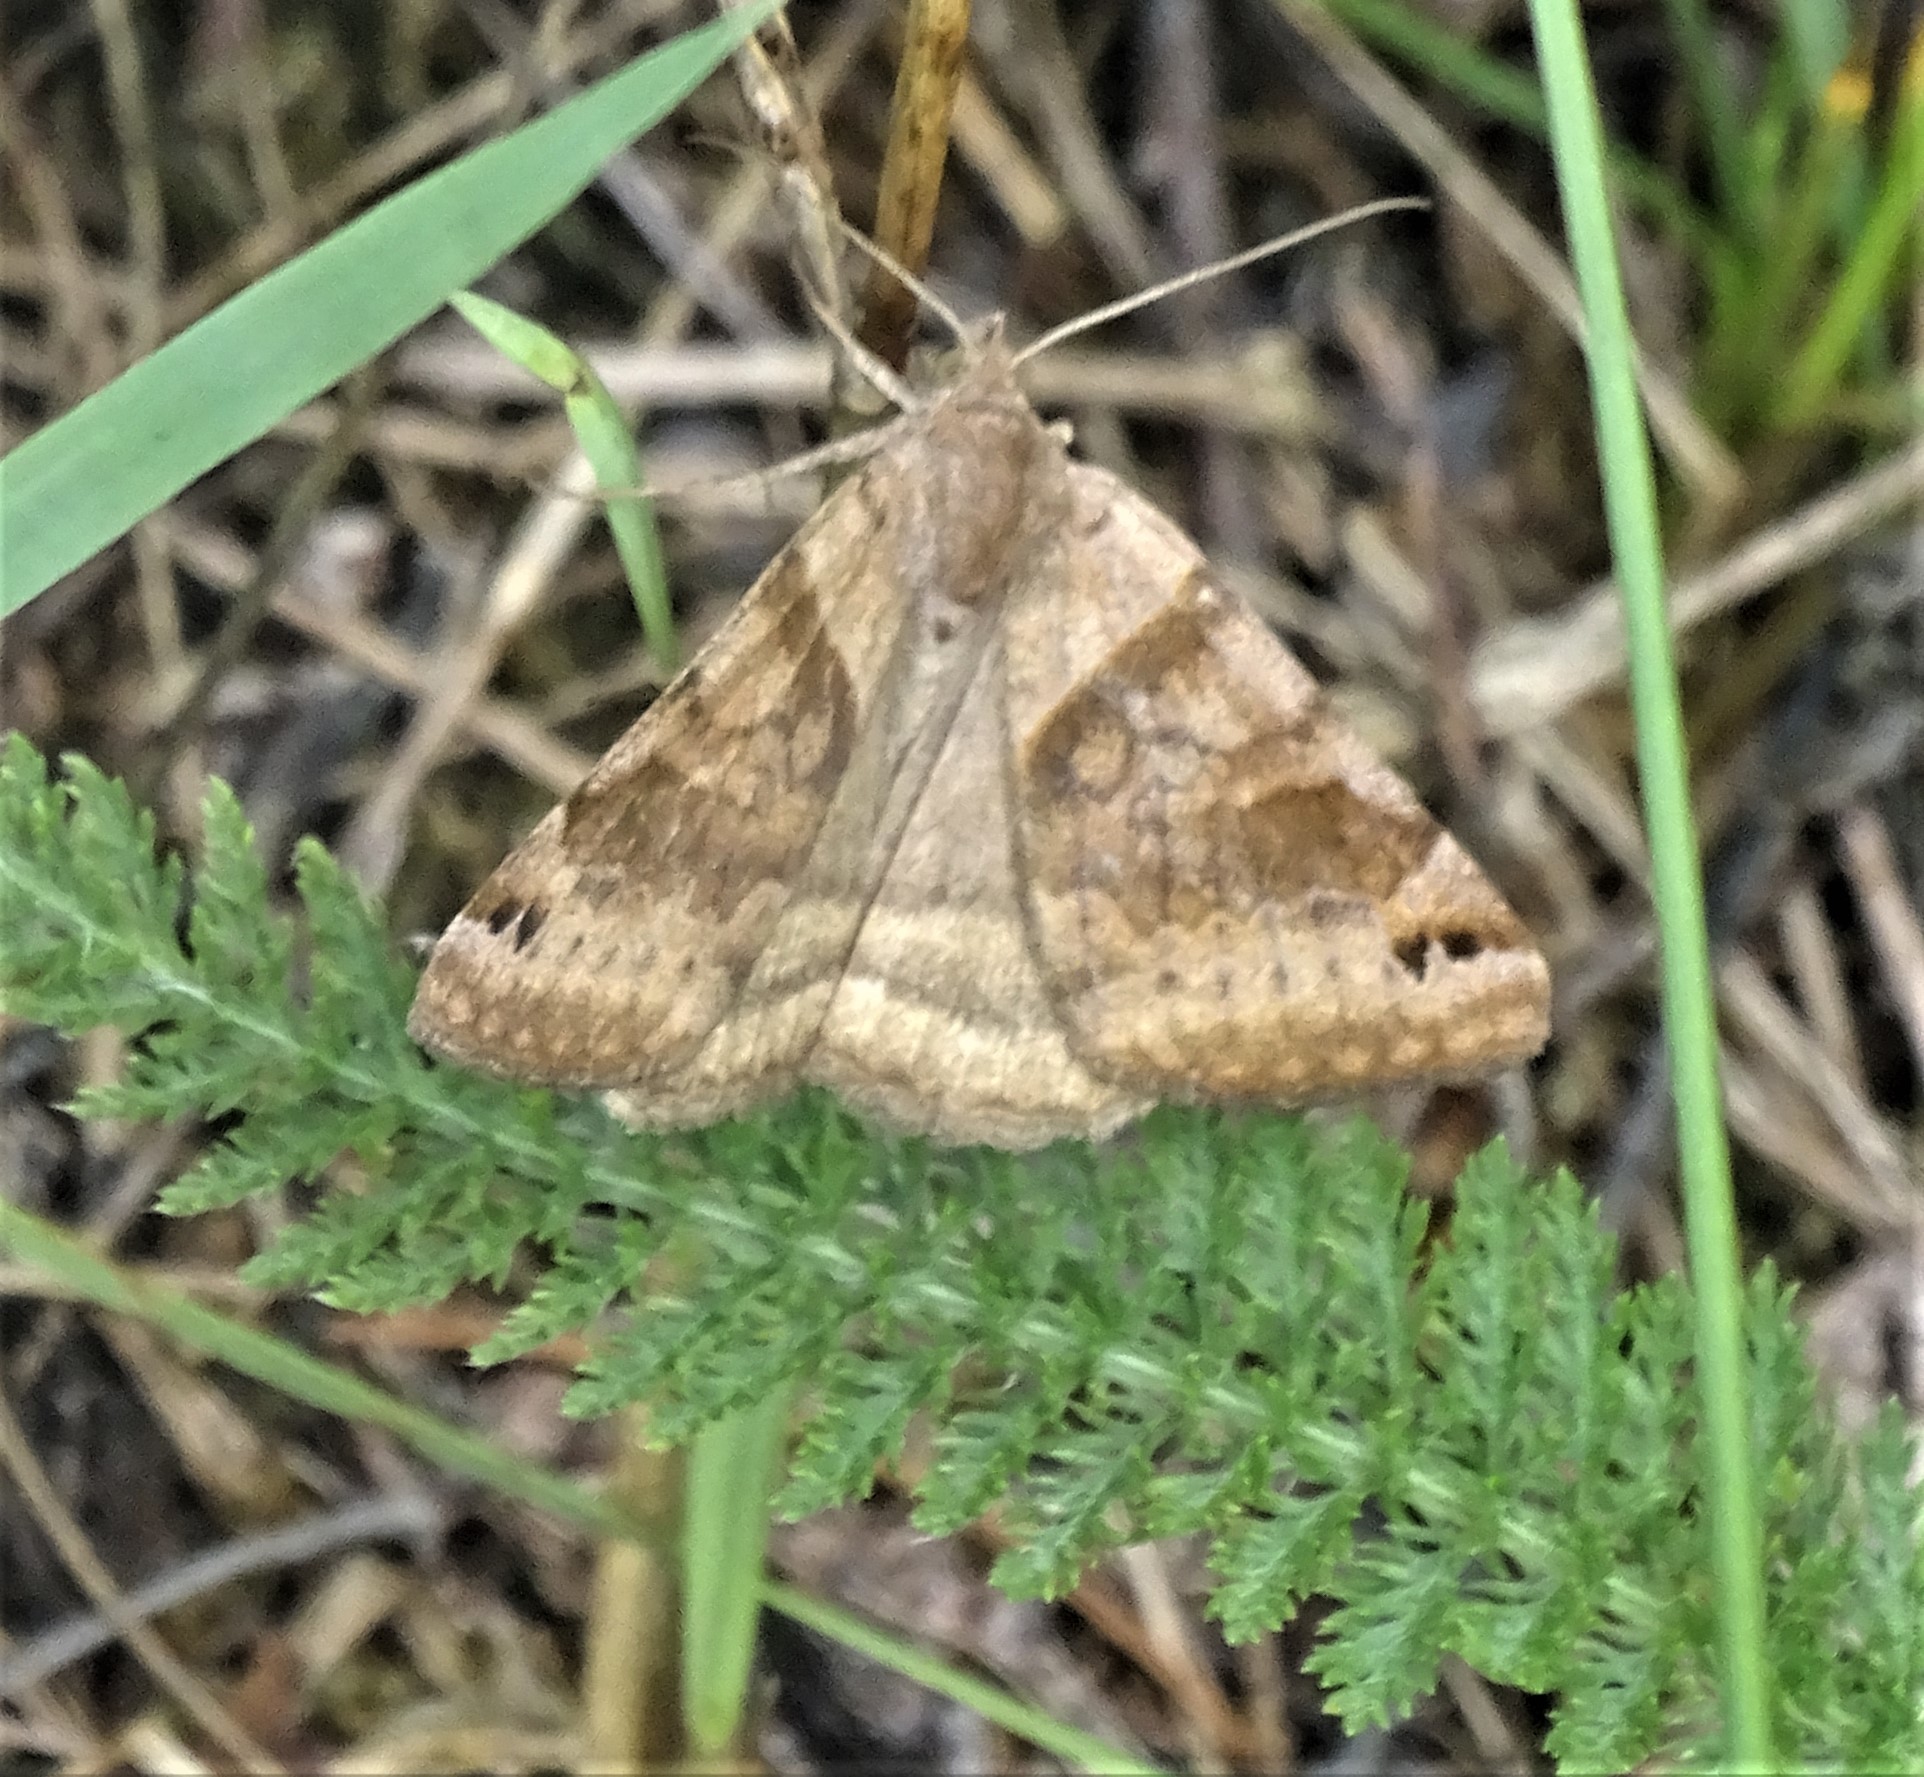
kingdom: Animalia
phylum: Arthropoda
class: Insecta
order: Lepidoptera
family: Erebidae
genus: Caenurgina
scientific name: Caenurgina crassiuscula
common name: Double-barred
